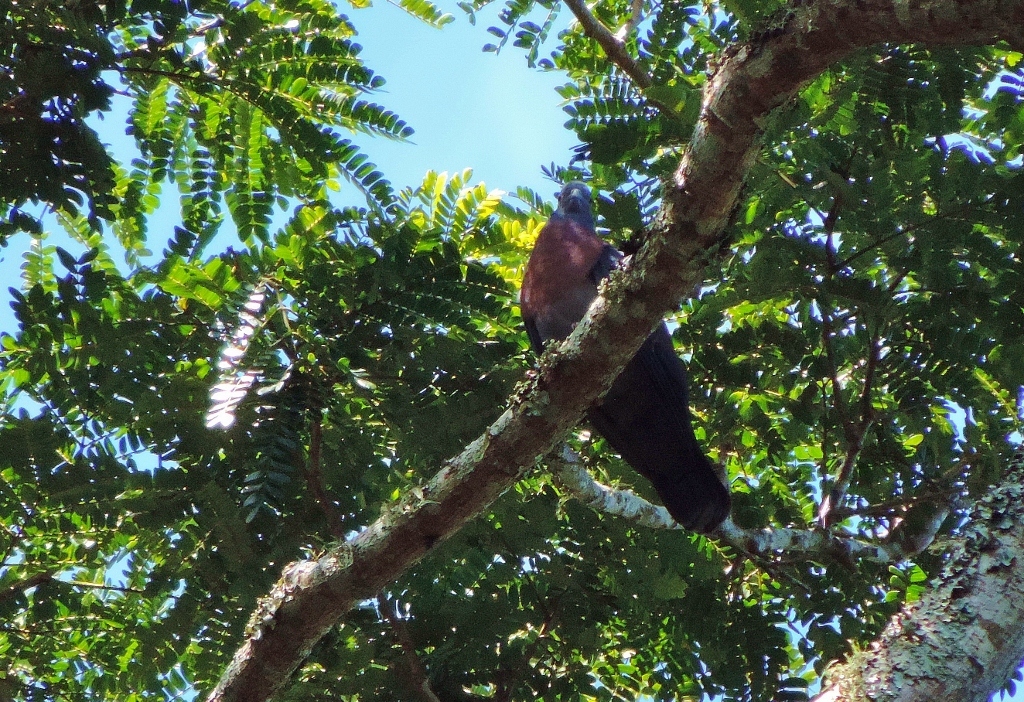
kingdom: Animalia
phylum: Chordata
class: Aves
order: Columbiformes
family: Columbidae
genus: Columba
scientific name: Columba delegorguei
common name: Eastern bronze-naped pigeon
